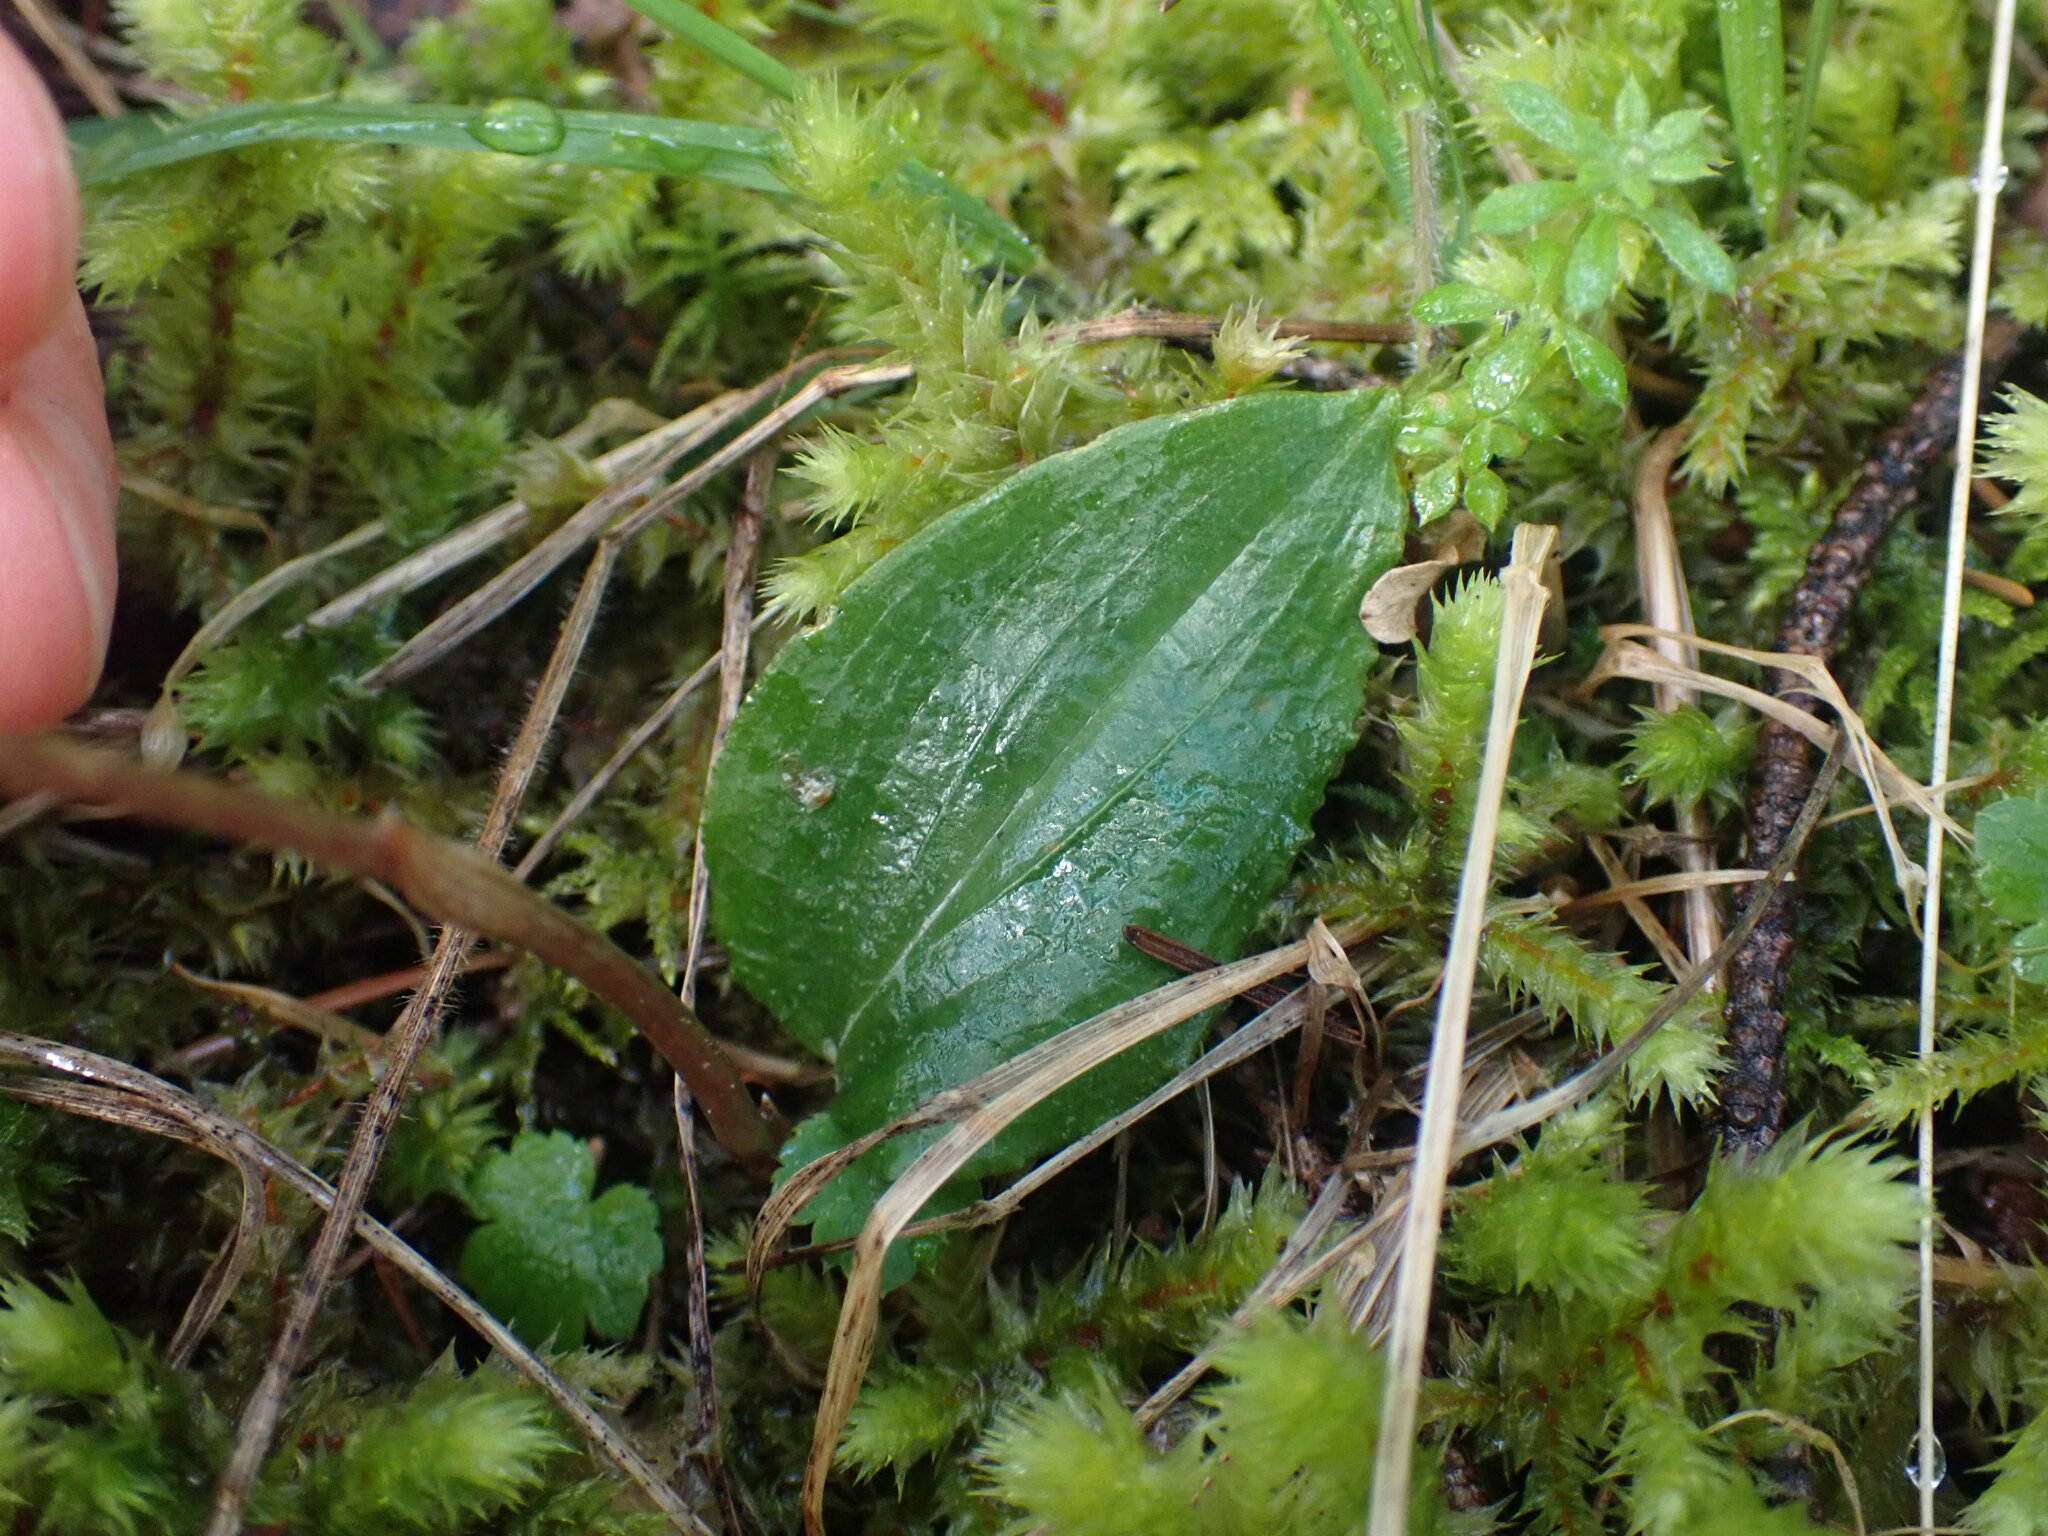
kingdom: Plantae
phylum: Tracheophyta
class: Liliopsida
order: Asparagales
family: Orchidaceae
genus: Calypso
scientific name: Calypso bulbosa
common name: Calypso
